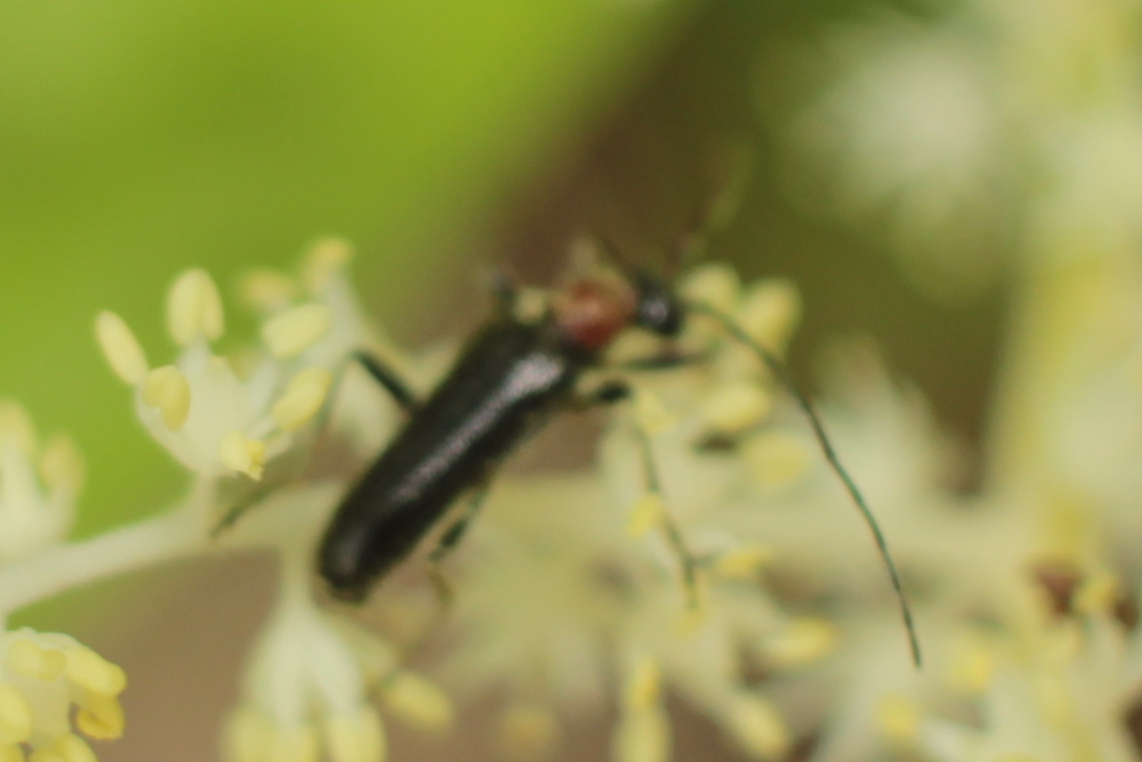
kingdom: Animalia
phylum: Arthropoda
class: Insecta
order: Coleoptera
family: Cerambycidae
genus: Pidonia
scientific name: Pidonia ruficollis
